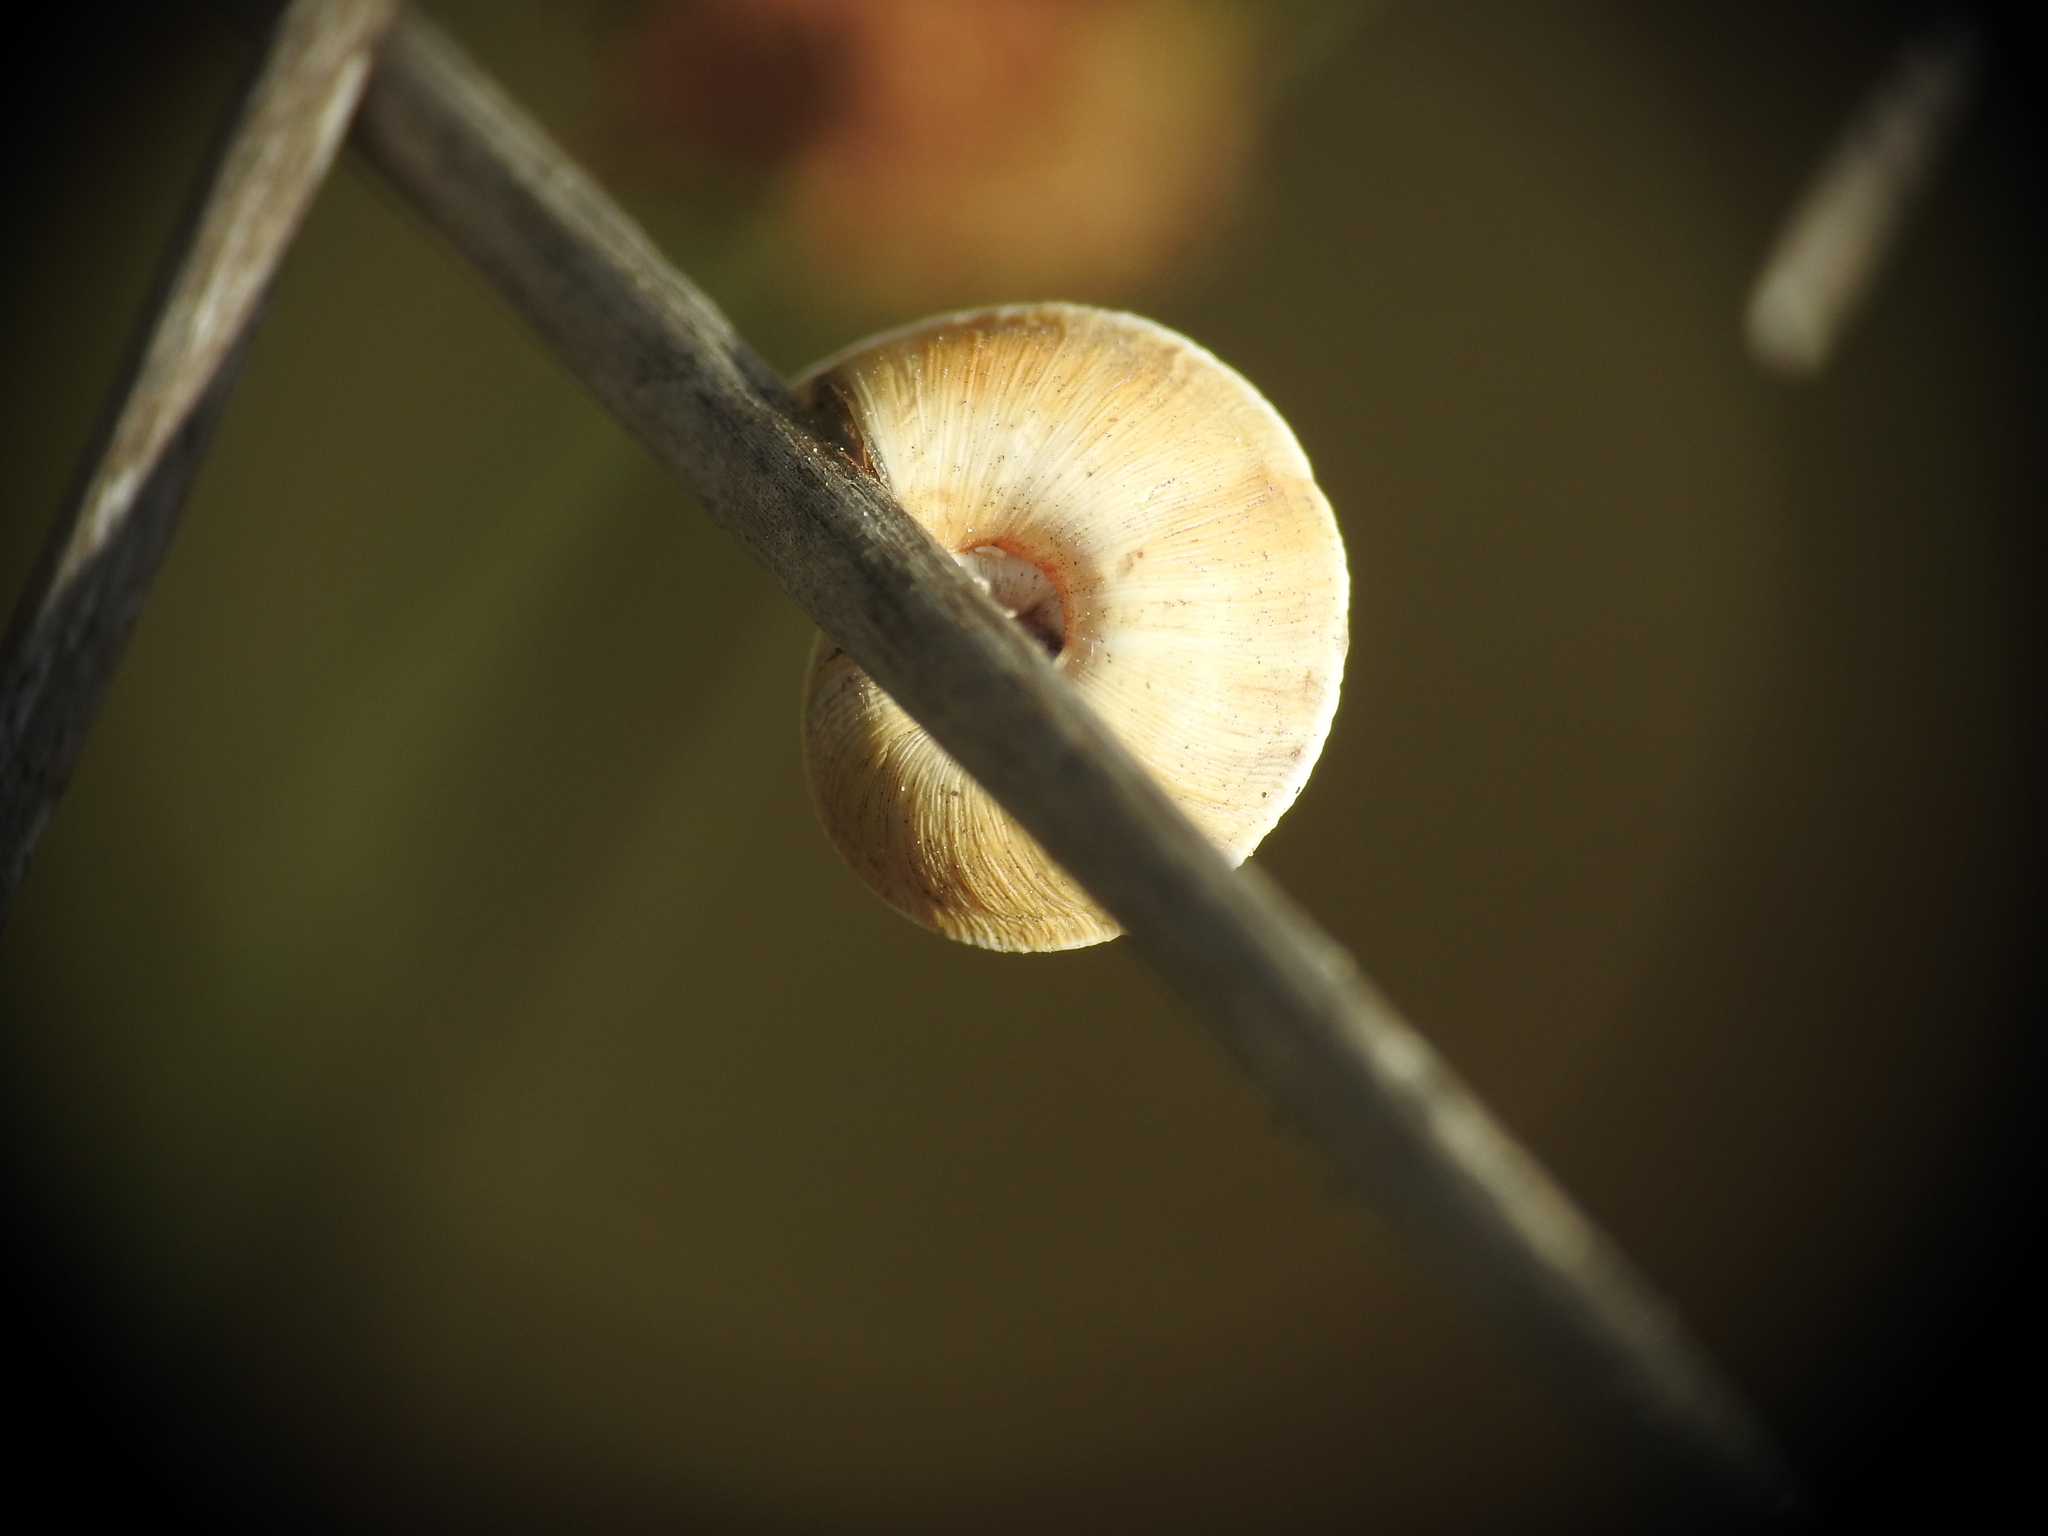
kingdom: Animalia
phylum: Mollusca
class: Gastropoda
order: Stylommatophora
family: Geomitridae
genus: Xerosecta
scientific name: Xerosecta explanata
